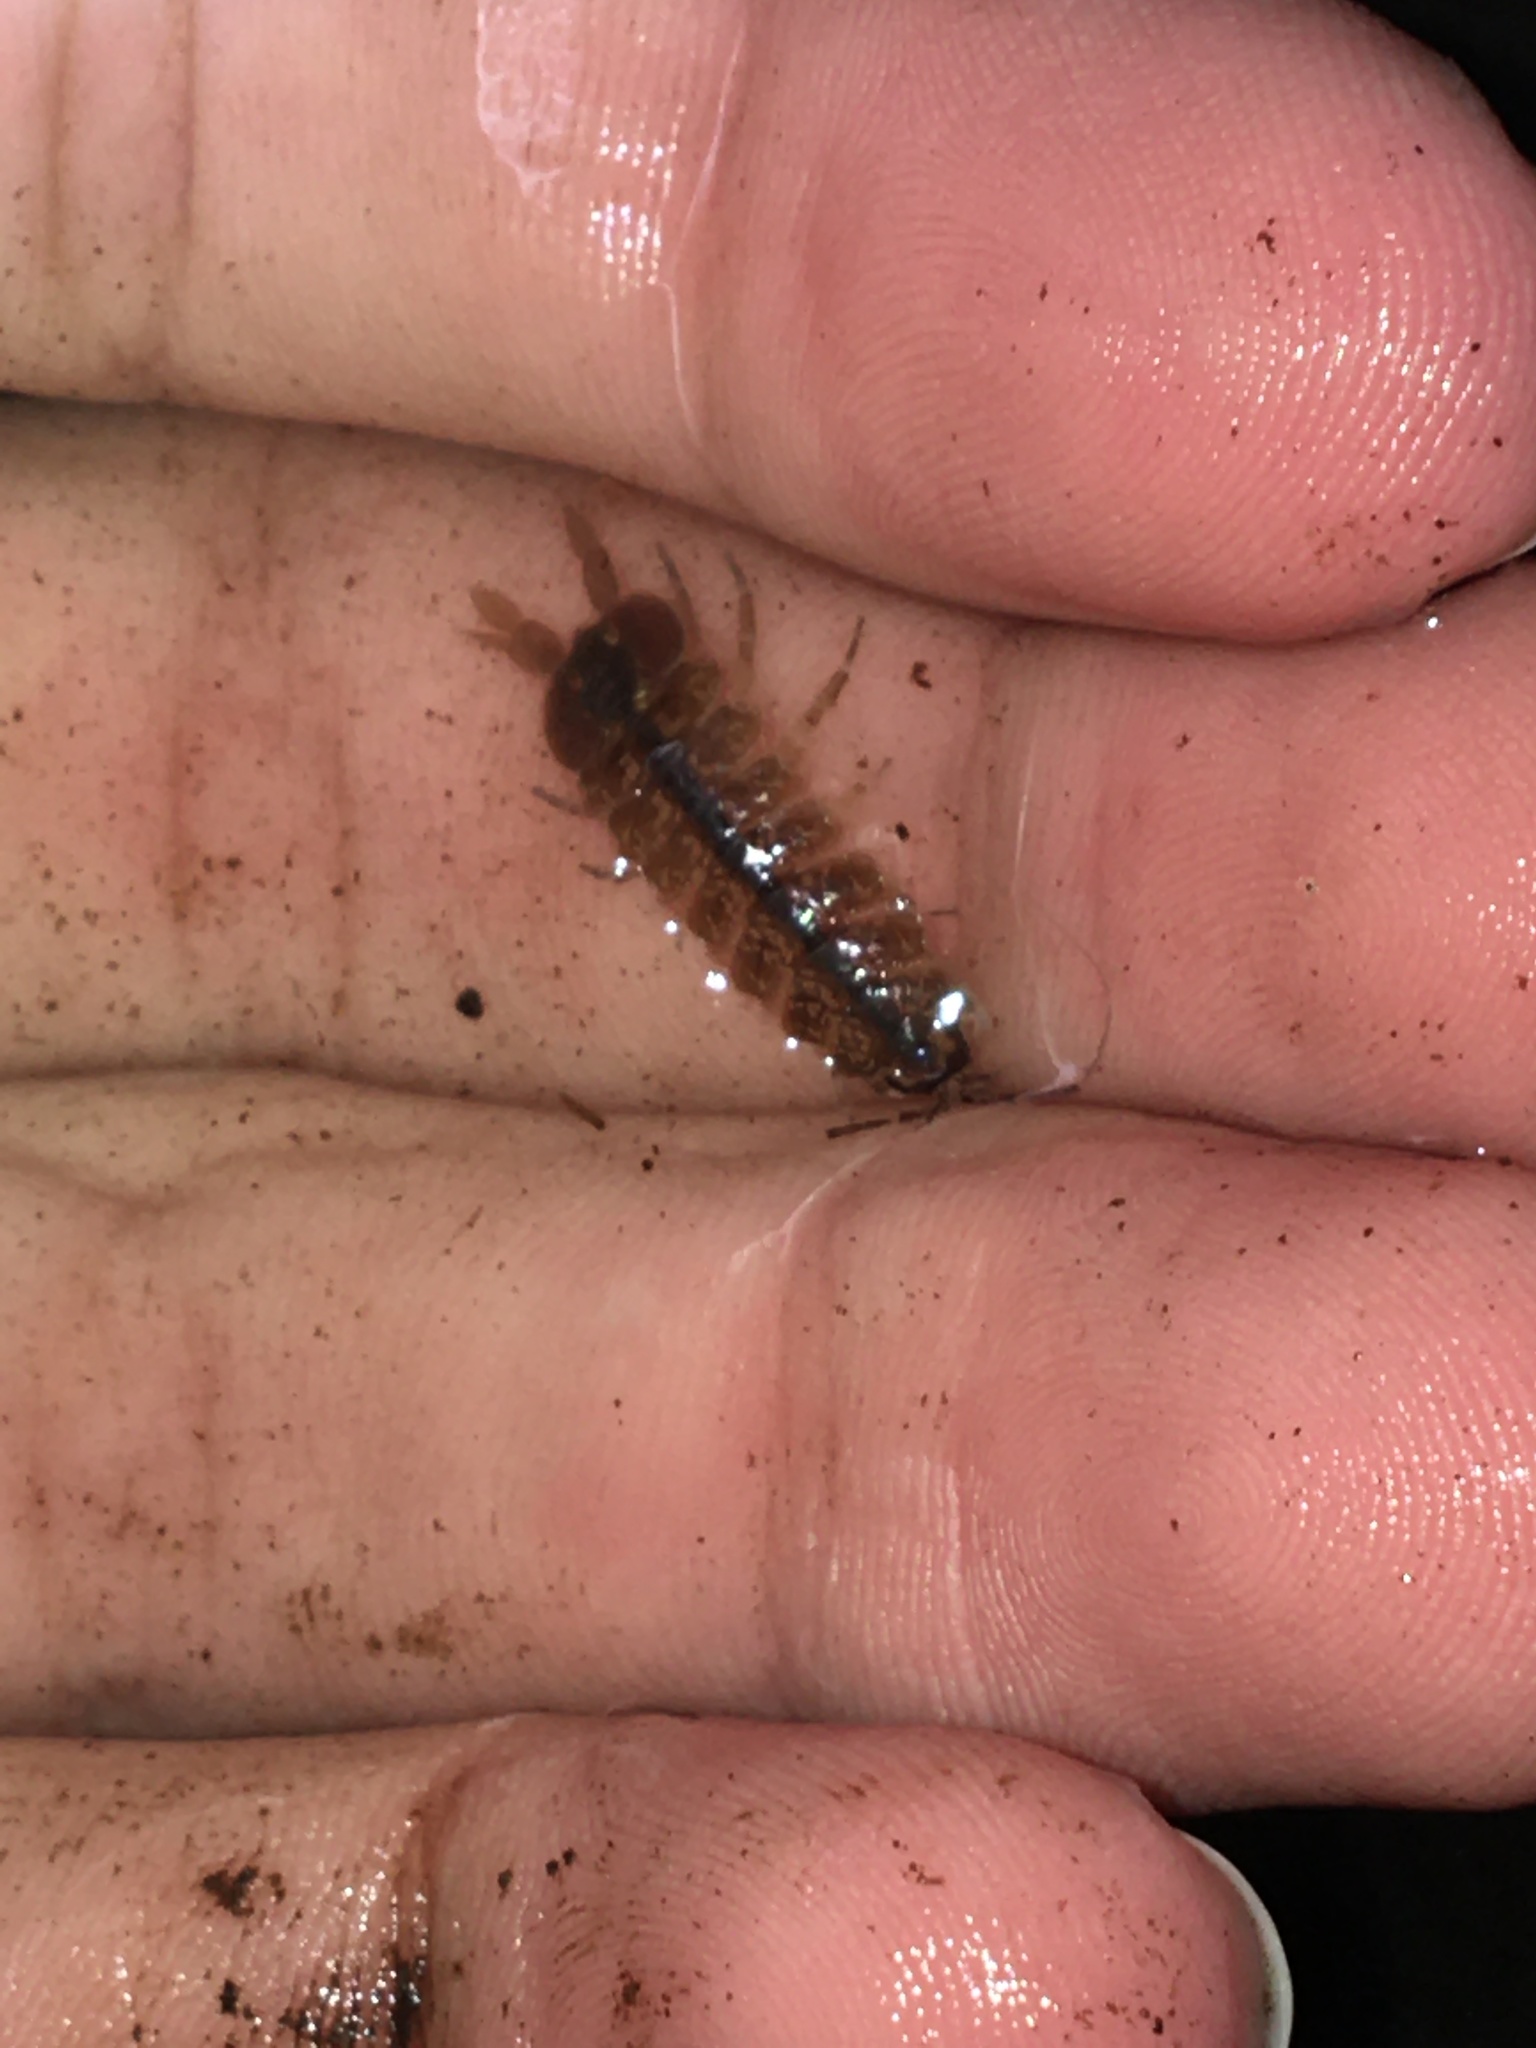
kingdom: Animalia
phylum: Arthropoda
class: Malacostraca
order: Isopoda
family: Asellidae
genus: Caecidotea
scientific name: Caecidotea
